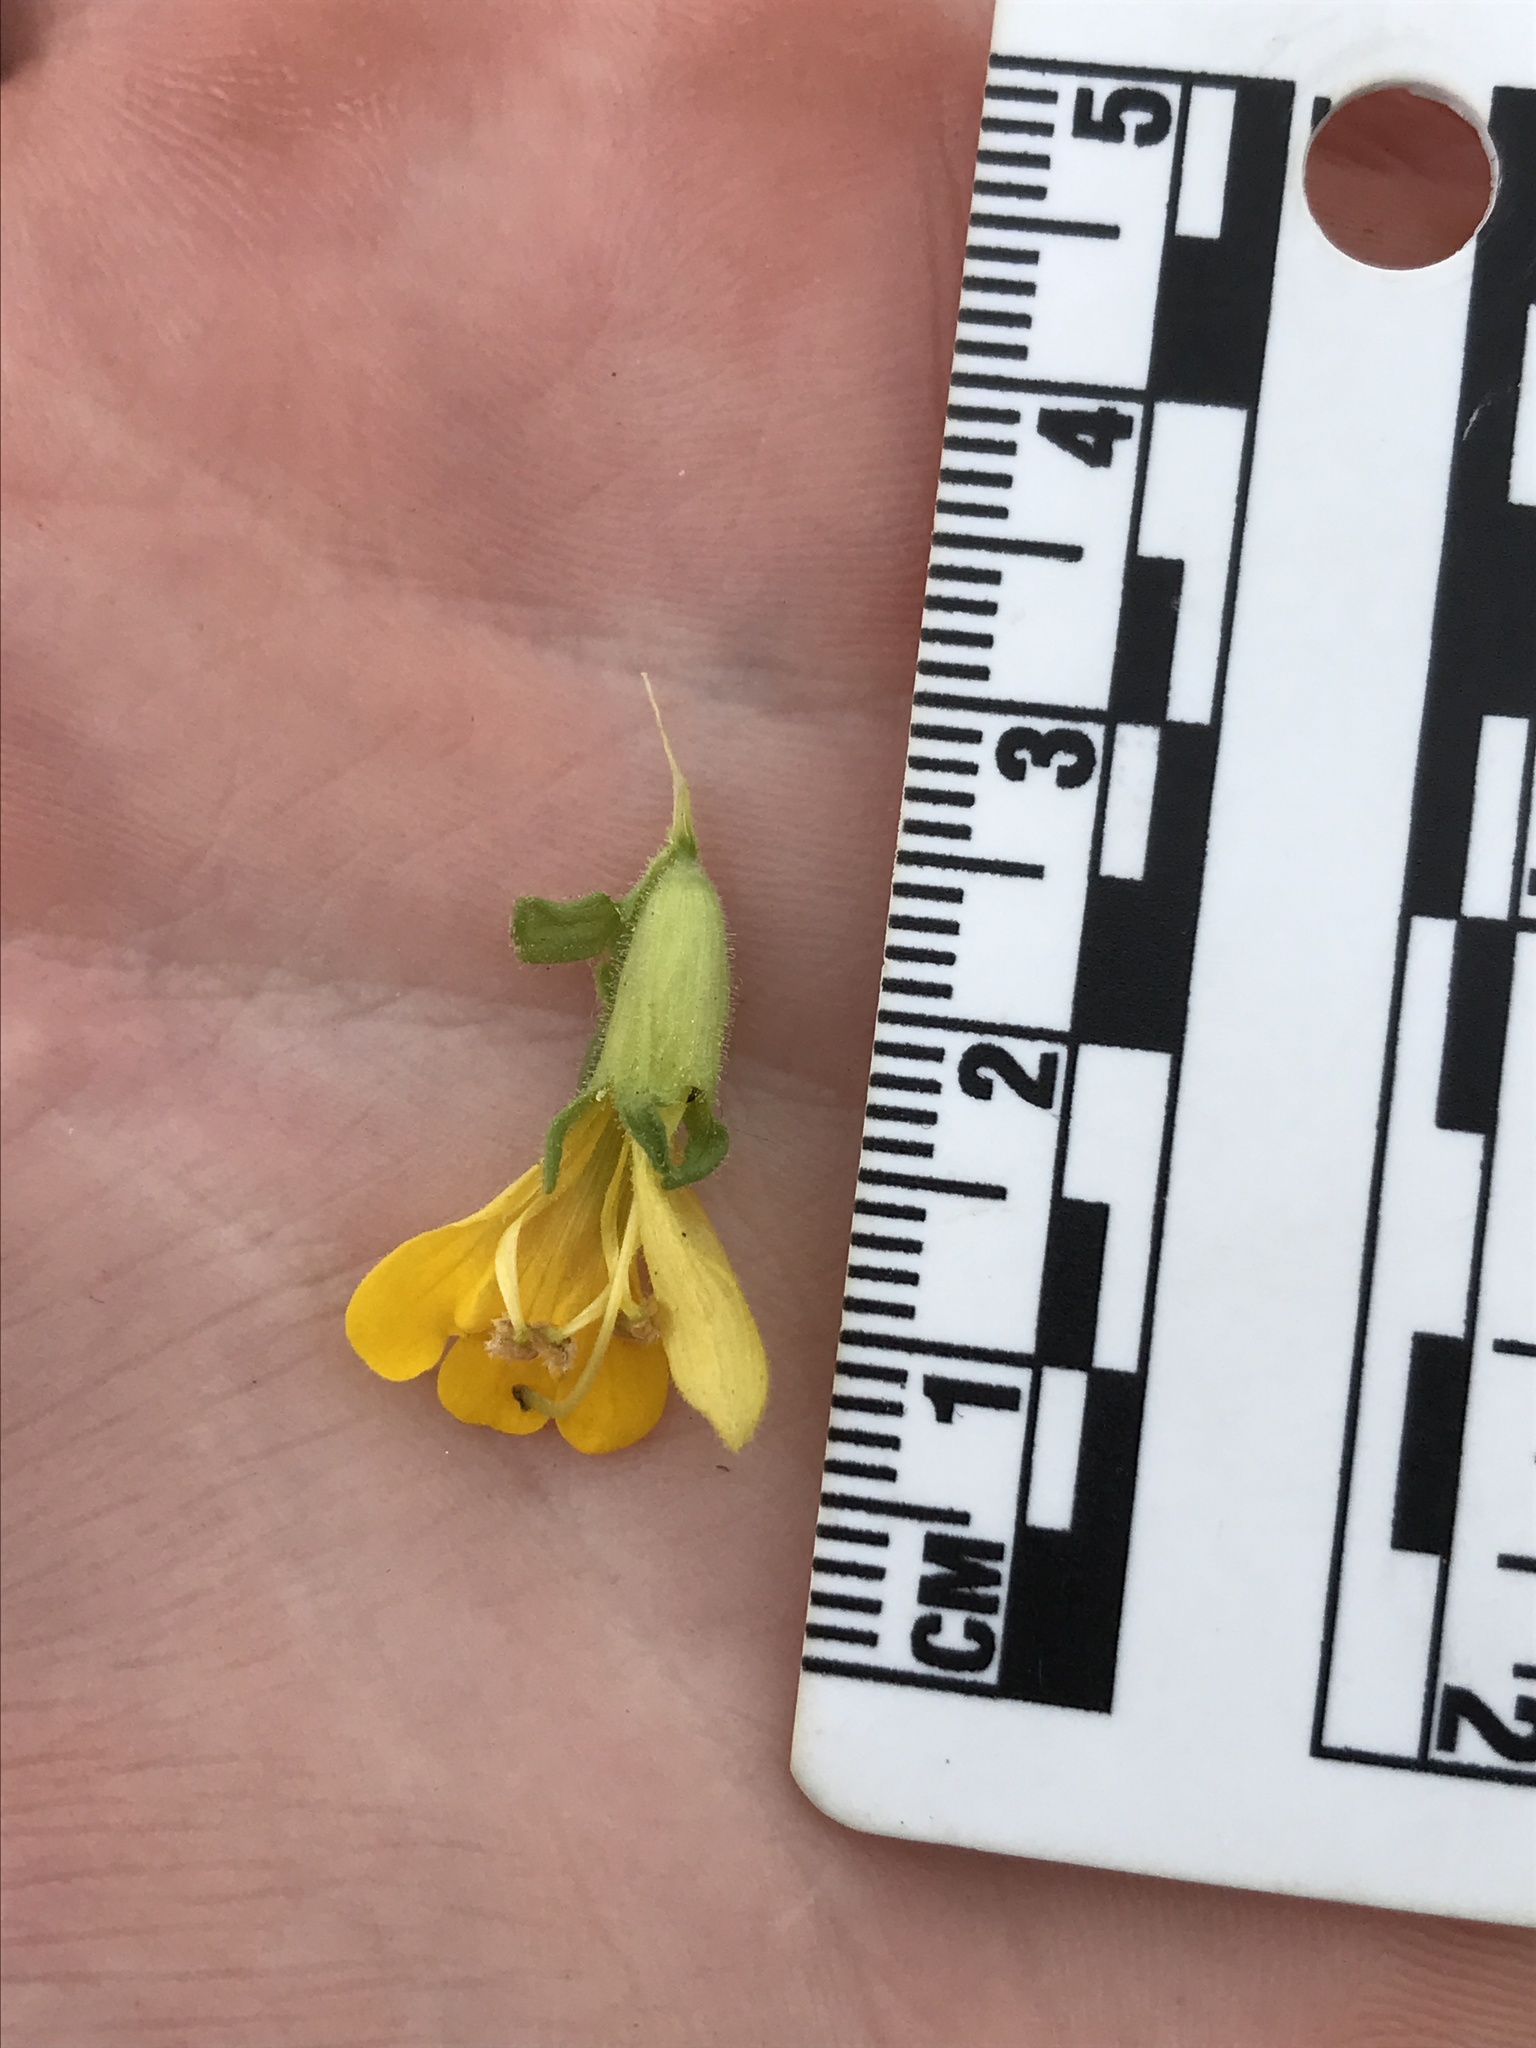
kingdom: Plantae
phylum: Tracheophyta
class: Magnoliopsida
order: Lamiales
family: Orobanchaceae
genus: Bellardia
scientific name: Bellardia viscosa
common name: Sticky parentucellia
